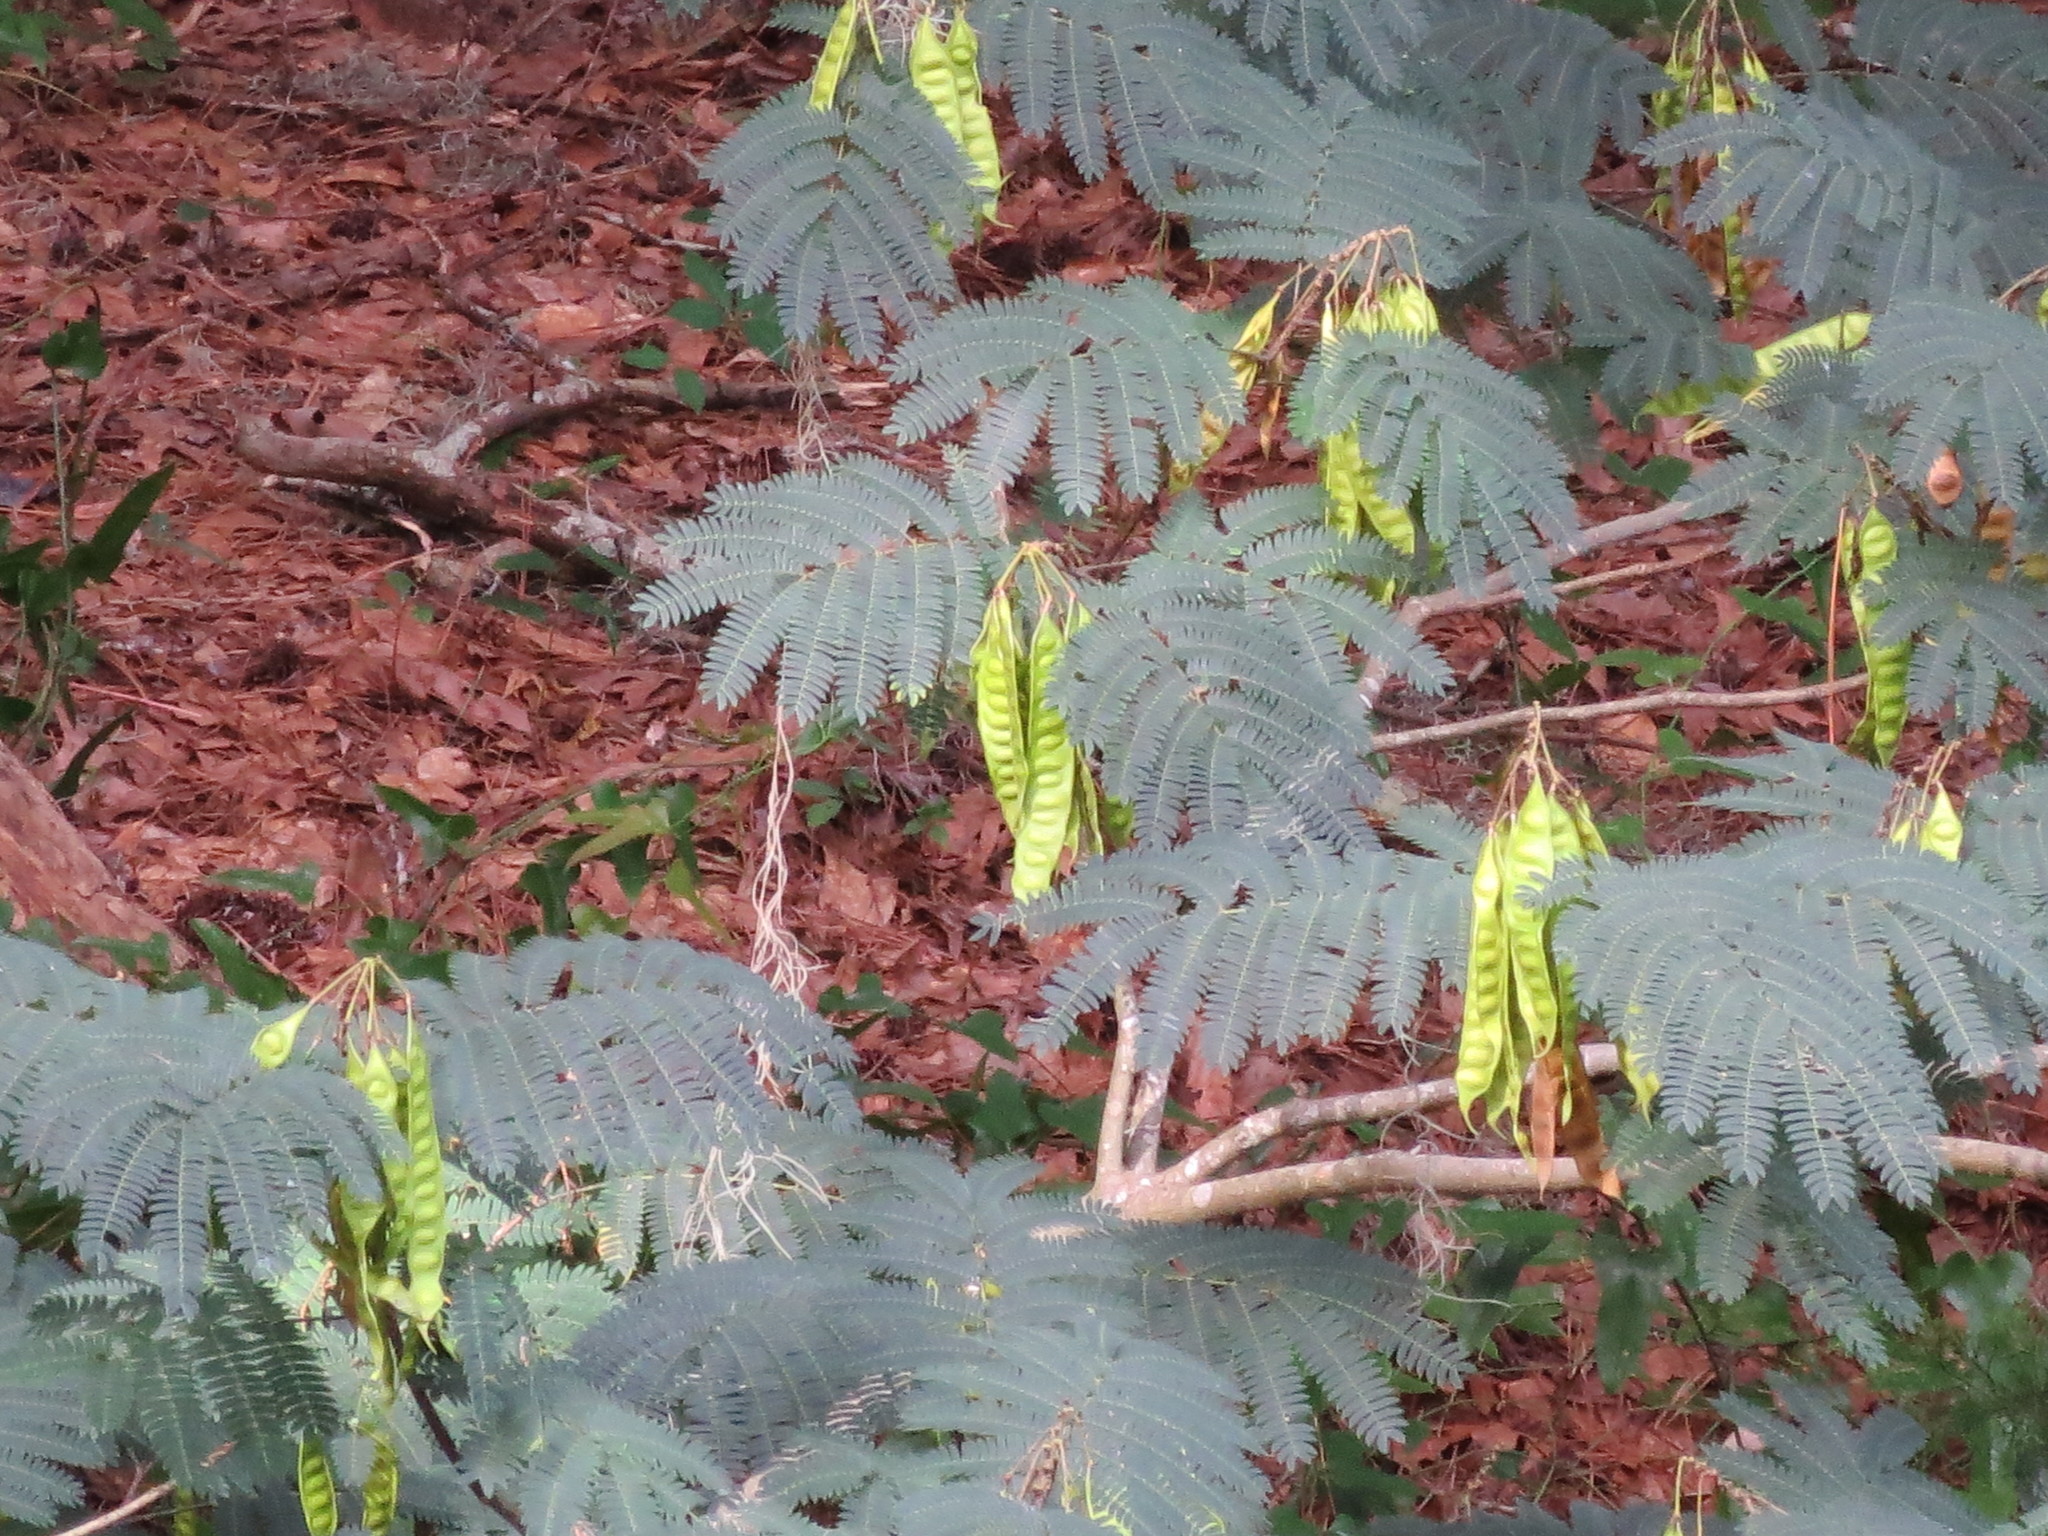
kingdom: Plantae
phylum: Tracheophyta
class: Magnoliopsida
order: Fabales
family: Fabaceae
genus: Albizia
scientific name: Albizia julibrissin
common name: Silktree
